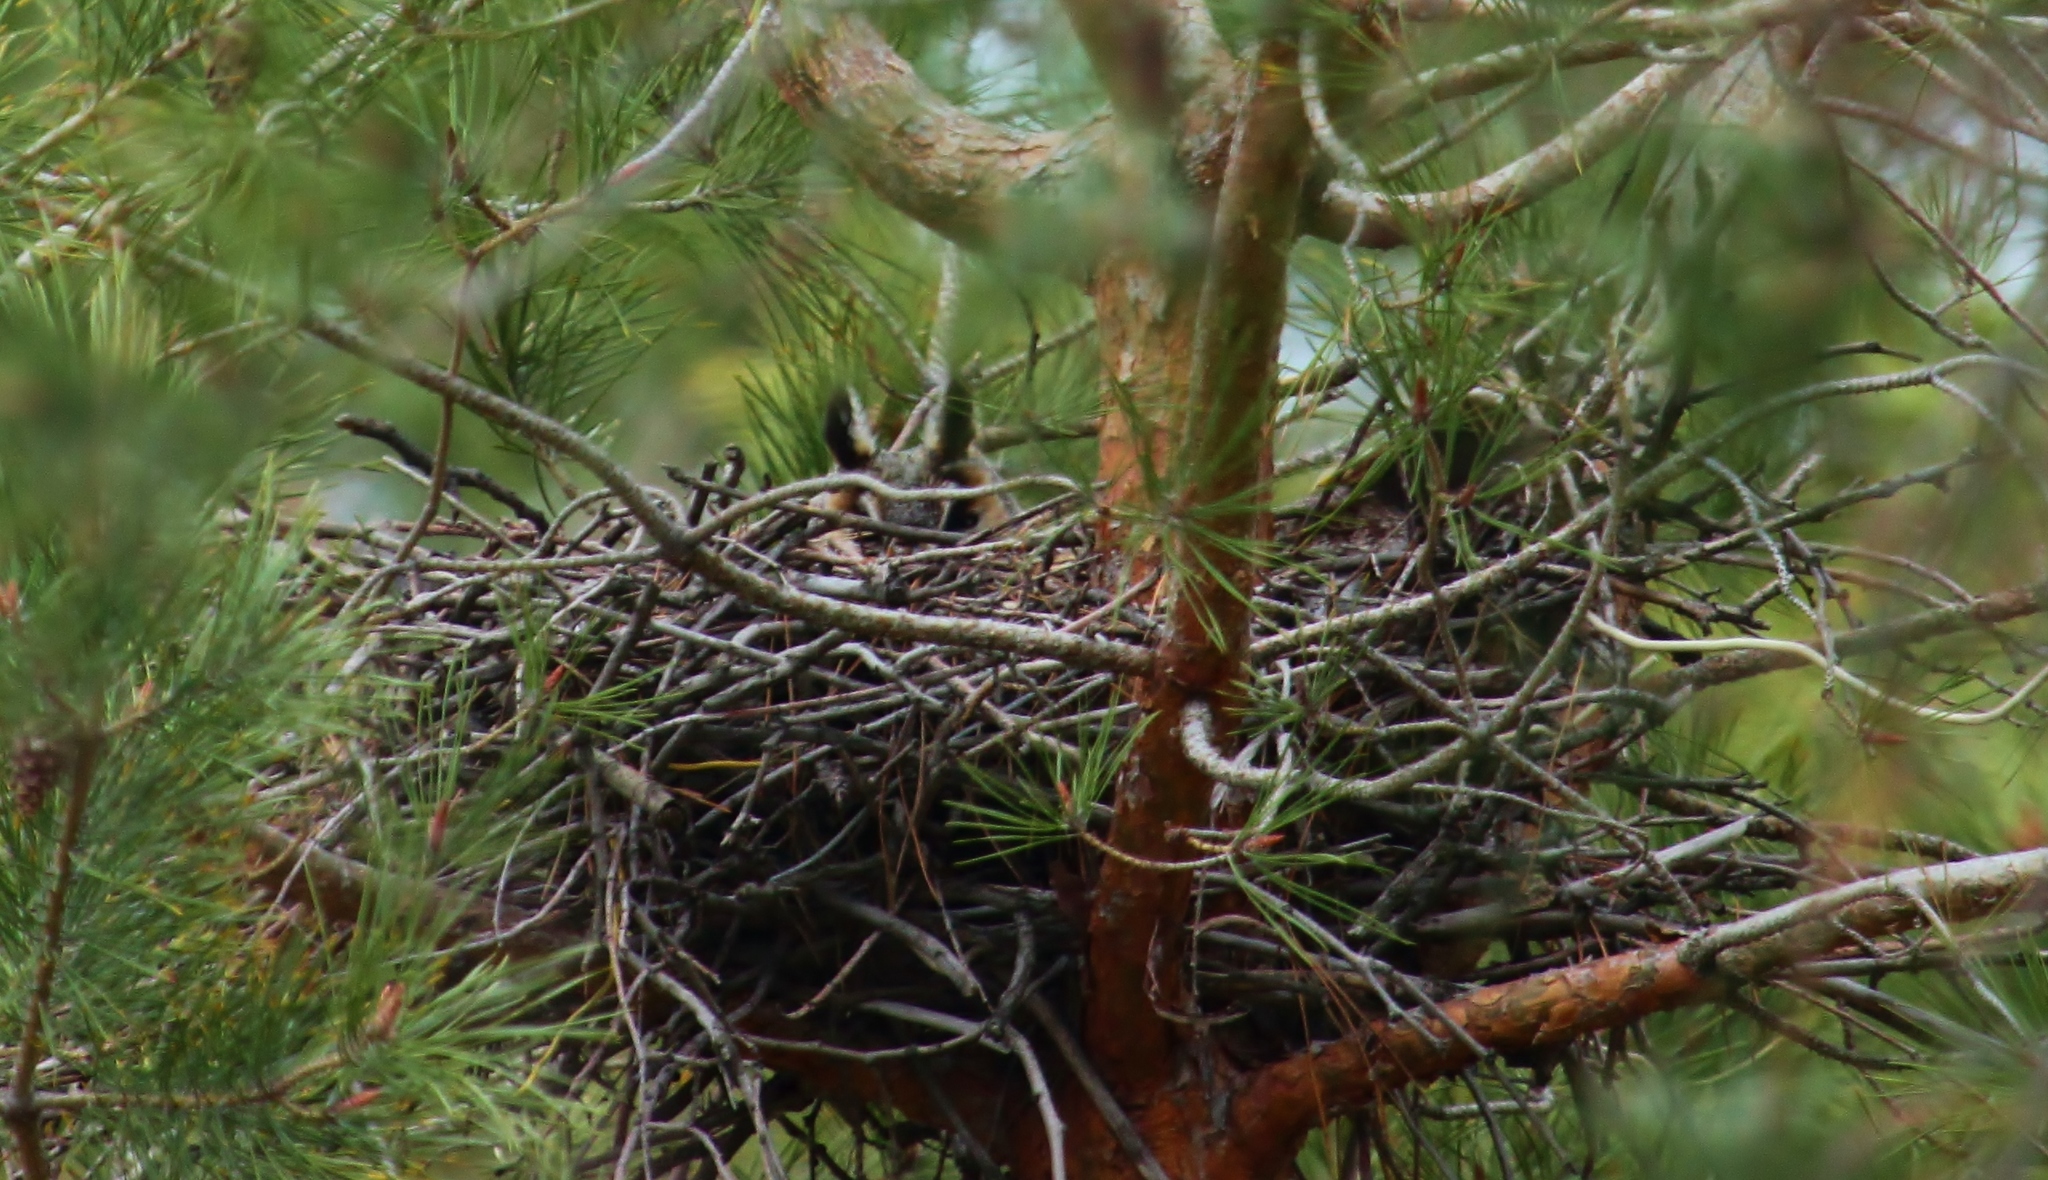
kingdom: Animalia
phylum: Chordata
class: Aves
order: Strigiformes
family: Strigidae
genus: Asio
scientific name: Asio otus
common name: Long-eared owl
